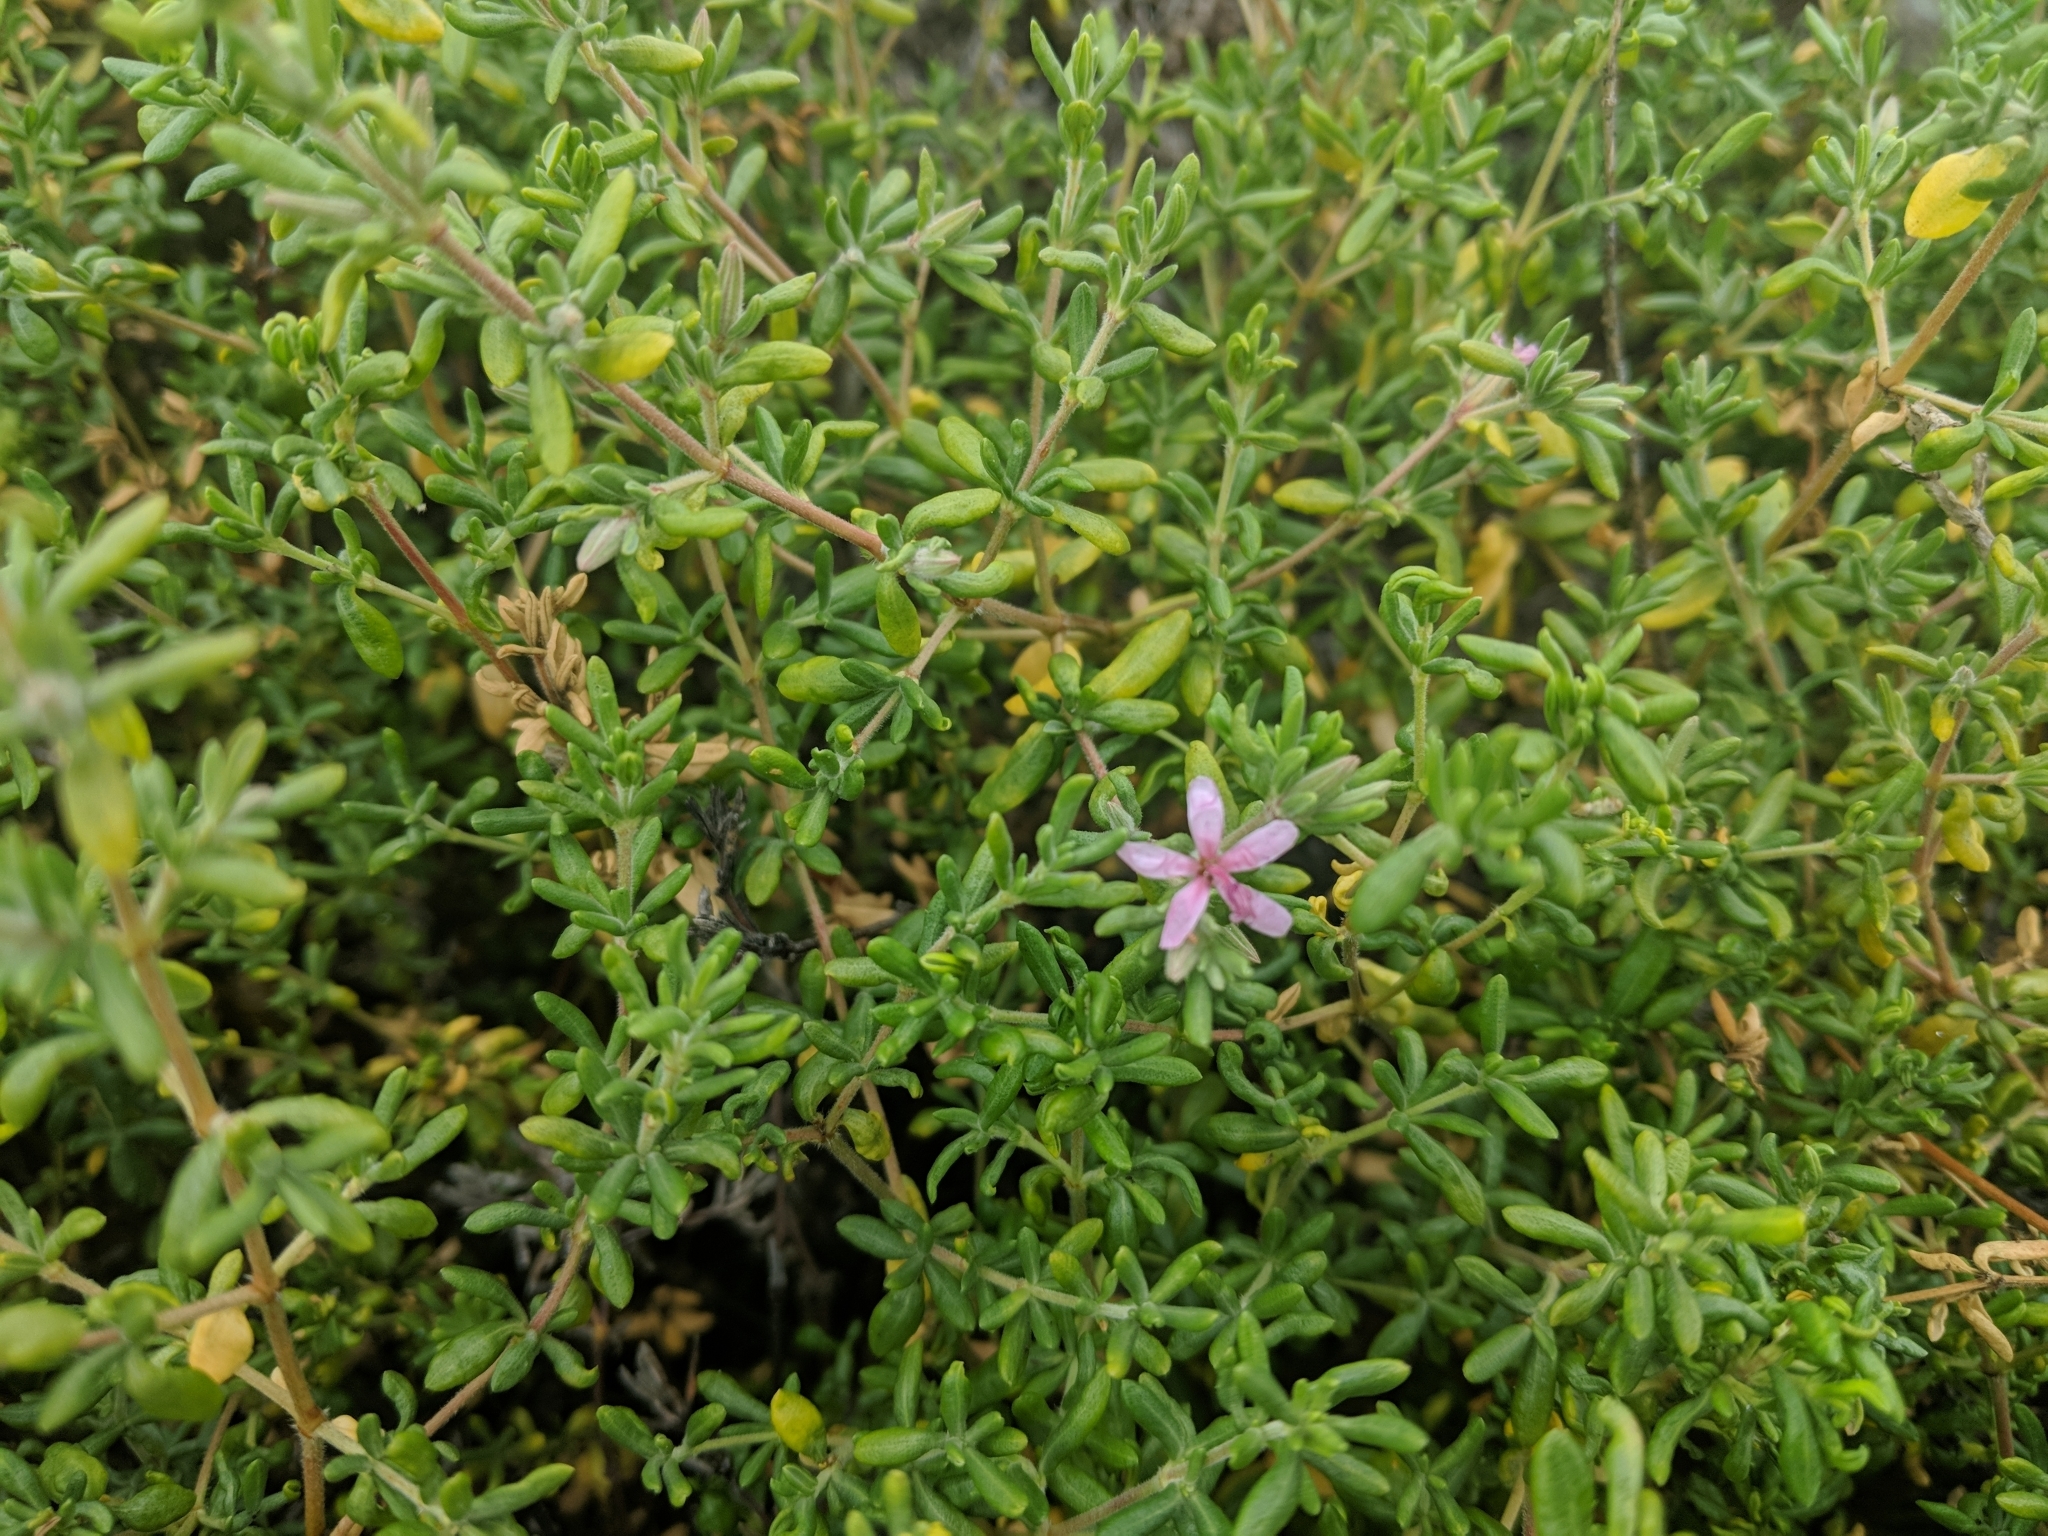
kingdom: Plantae
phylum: Tracheophyta
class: Magnoliopsida
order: Caryophyllales
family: Frankeniaceae
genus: Frankenia
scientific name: Frankenia salina
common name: Alkali seaheath
